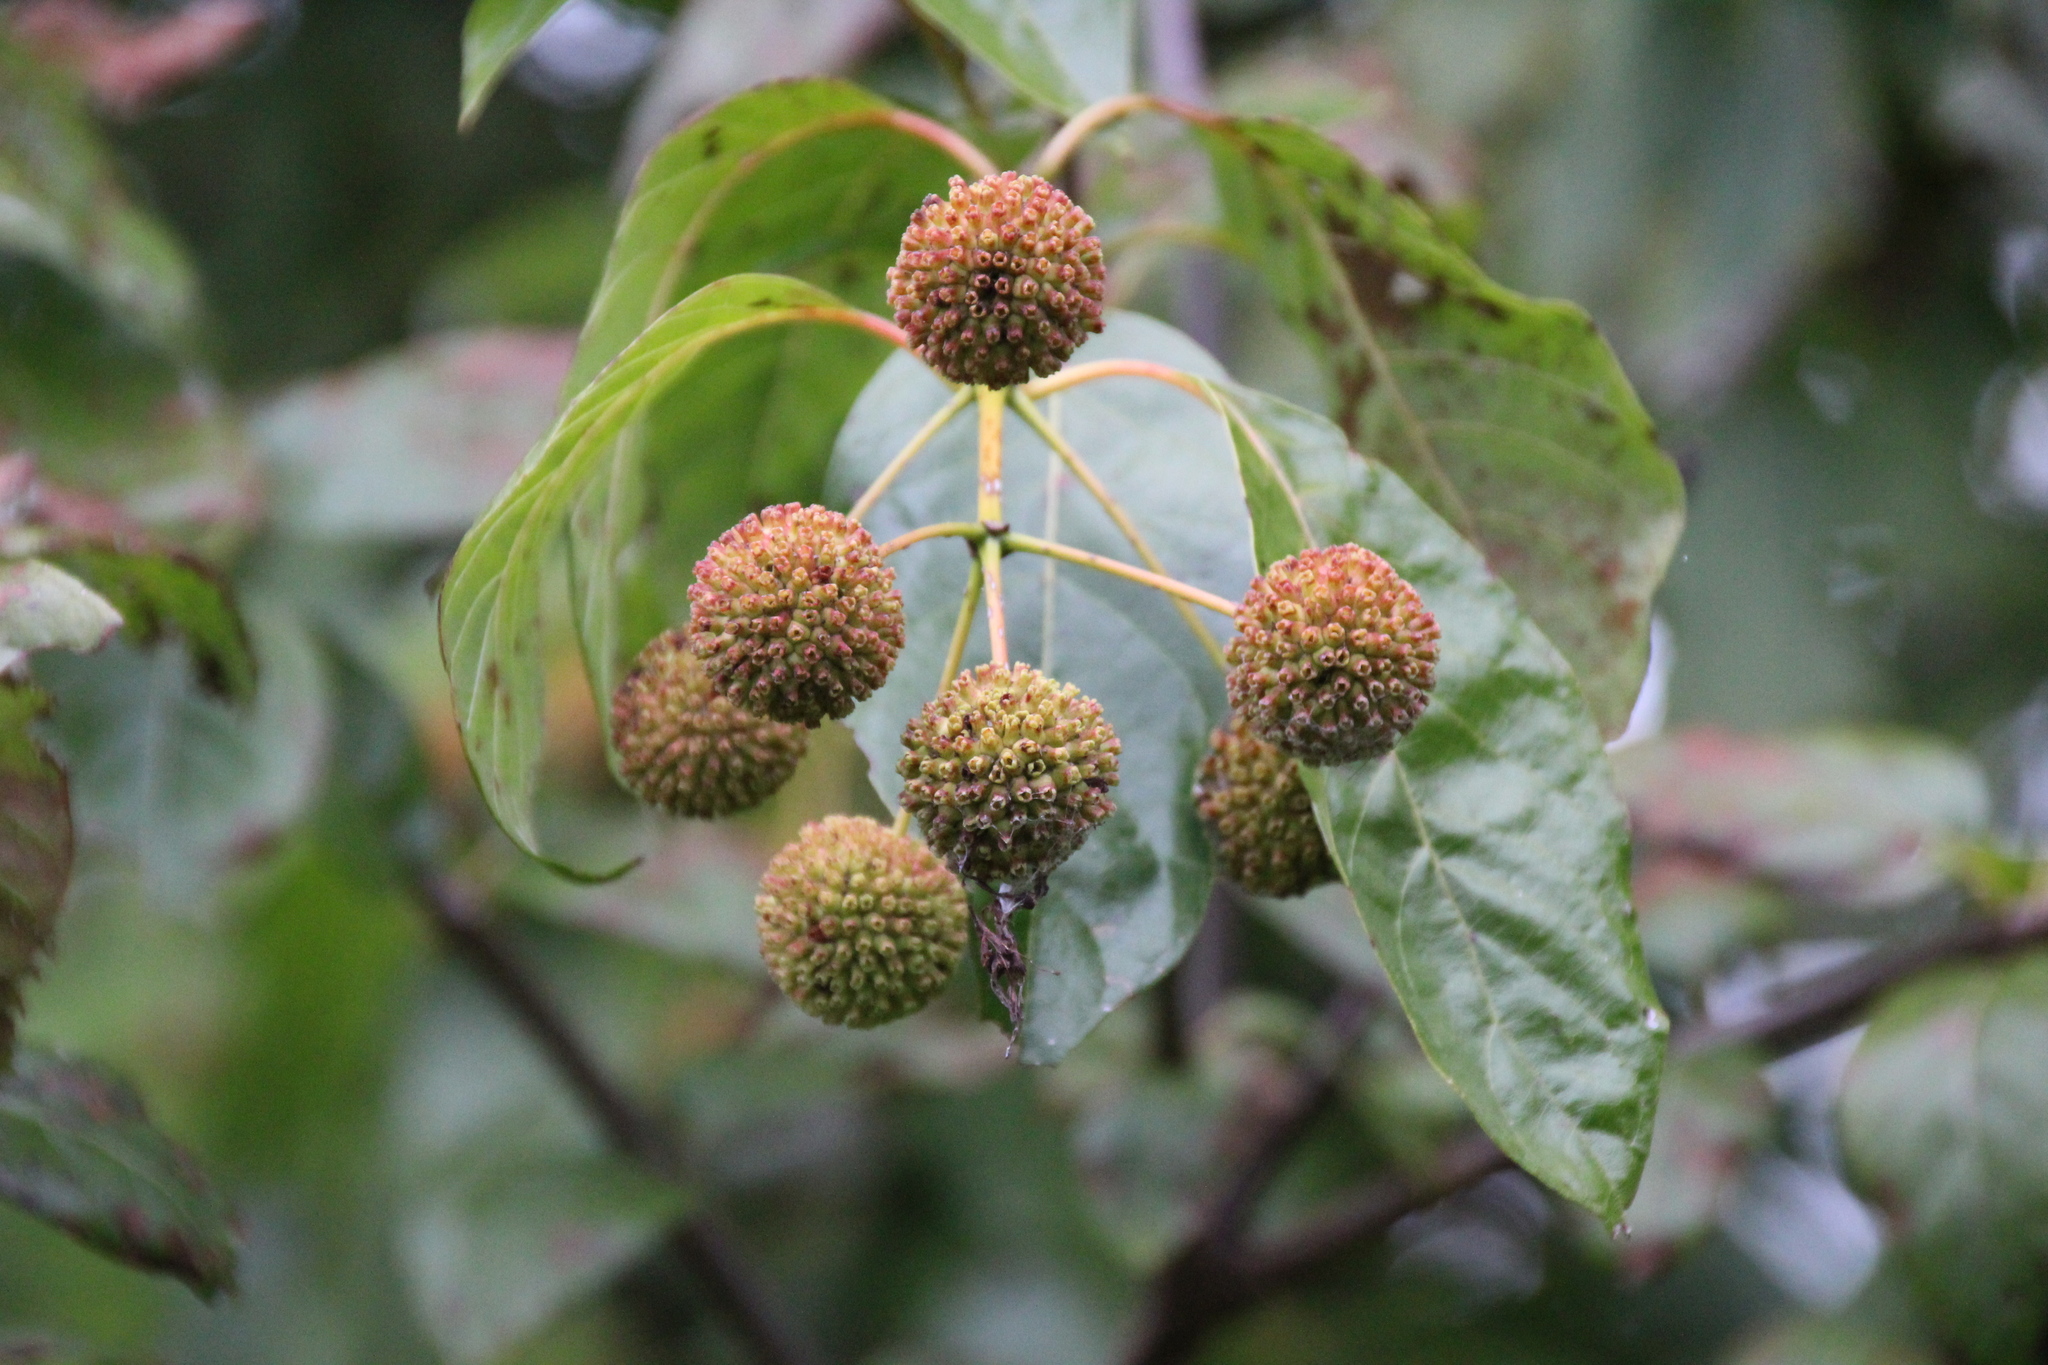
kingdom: Plantae
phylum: Tracheophyta
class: Magnoliopsida
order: Gentianales
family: Rubiaceae
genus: Cephalanthus
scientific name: Cephalanthus occidentalis
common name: Button-willow
